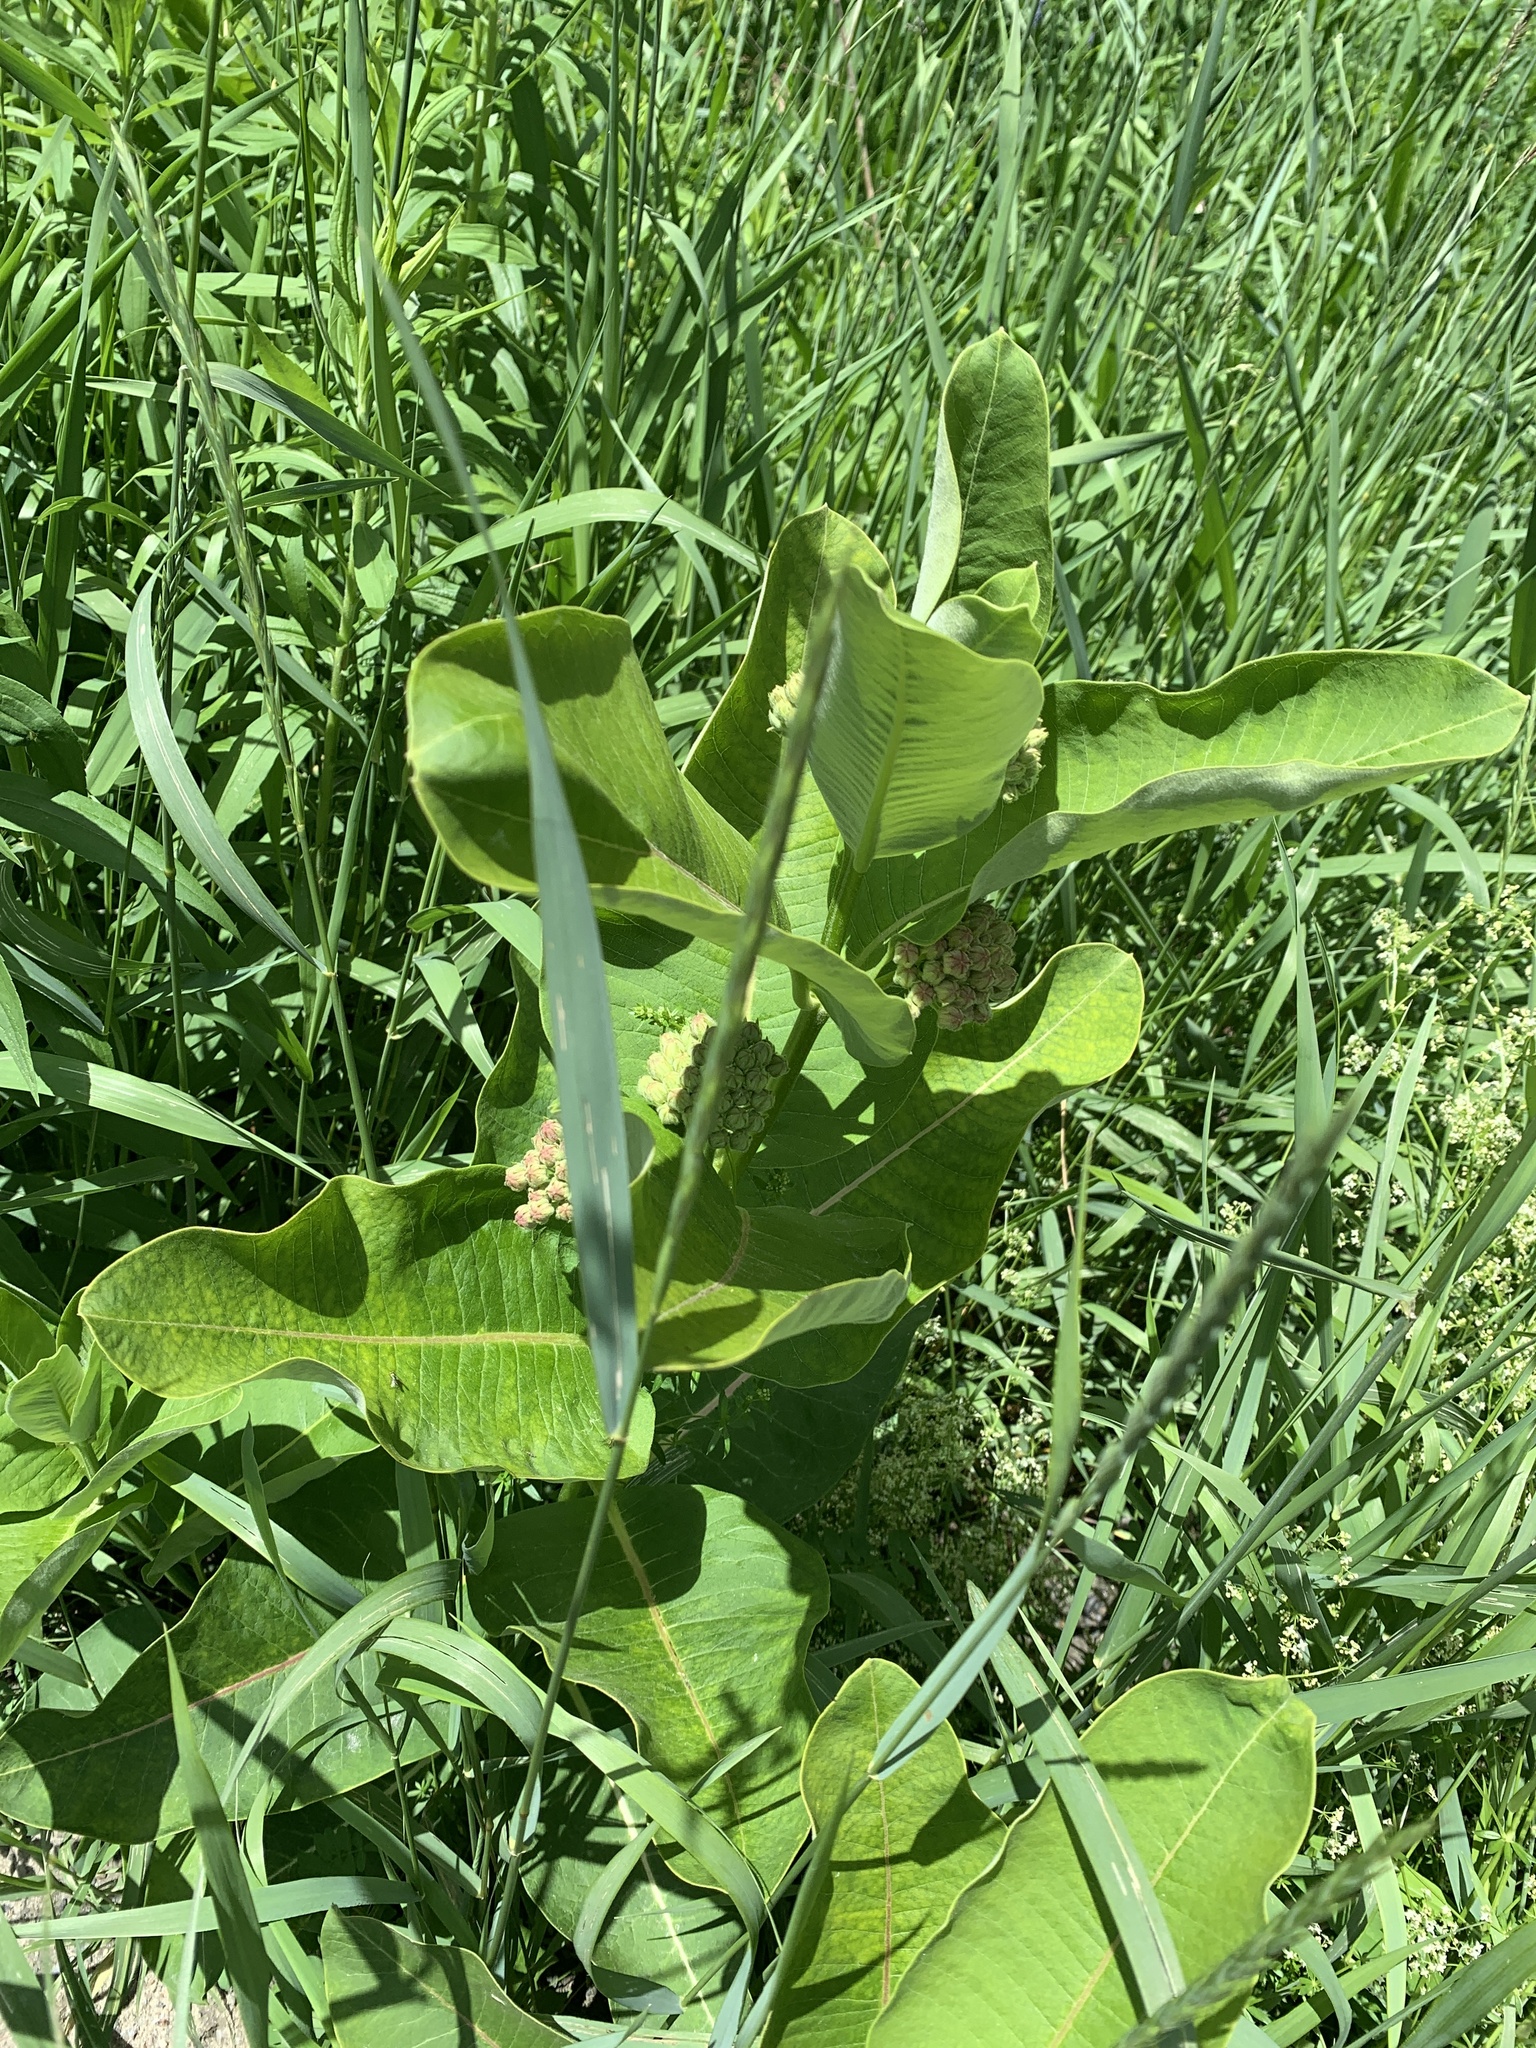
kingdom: Plantae
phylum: Tracheophyta
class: Magnoliopsida
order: Gentianales
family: Apocynaceae
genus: Asclepias
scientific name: Asclepias syriaca
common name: Common milkweed
